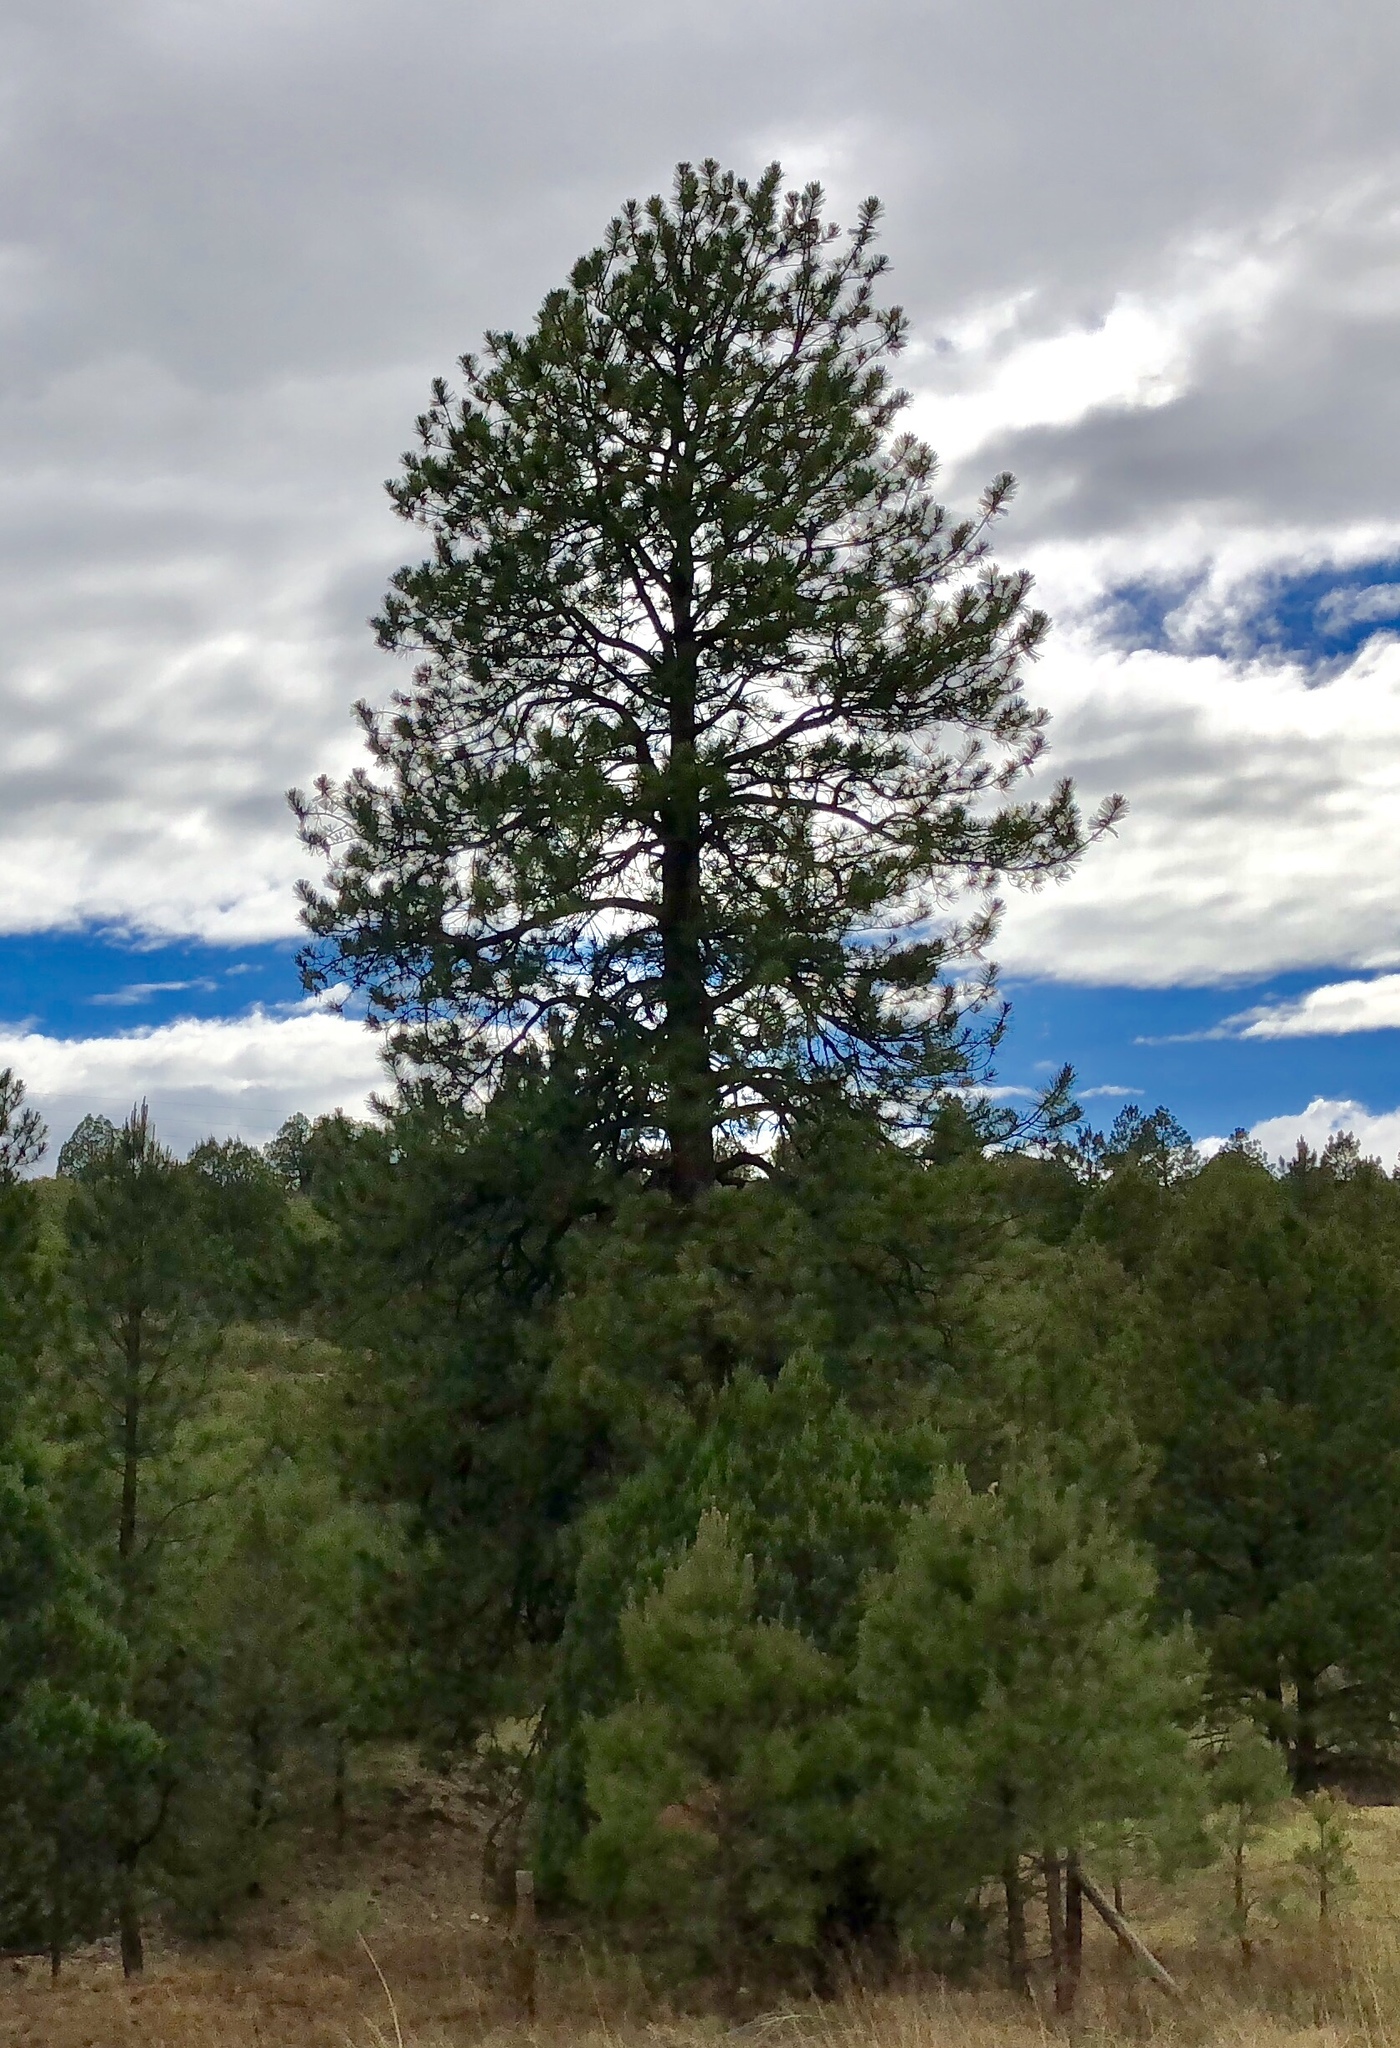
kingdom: Plantae
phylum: Tracheophyta
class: Pinopsida
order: Pinales
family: Pinaceae
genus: Pinus
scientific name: Pinus ponderosa
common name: Western yellow-pine
